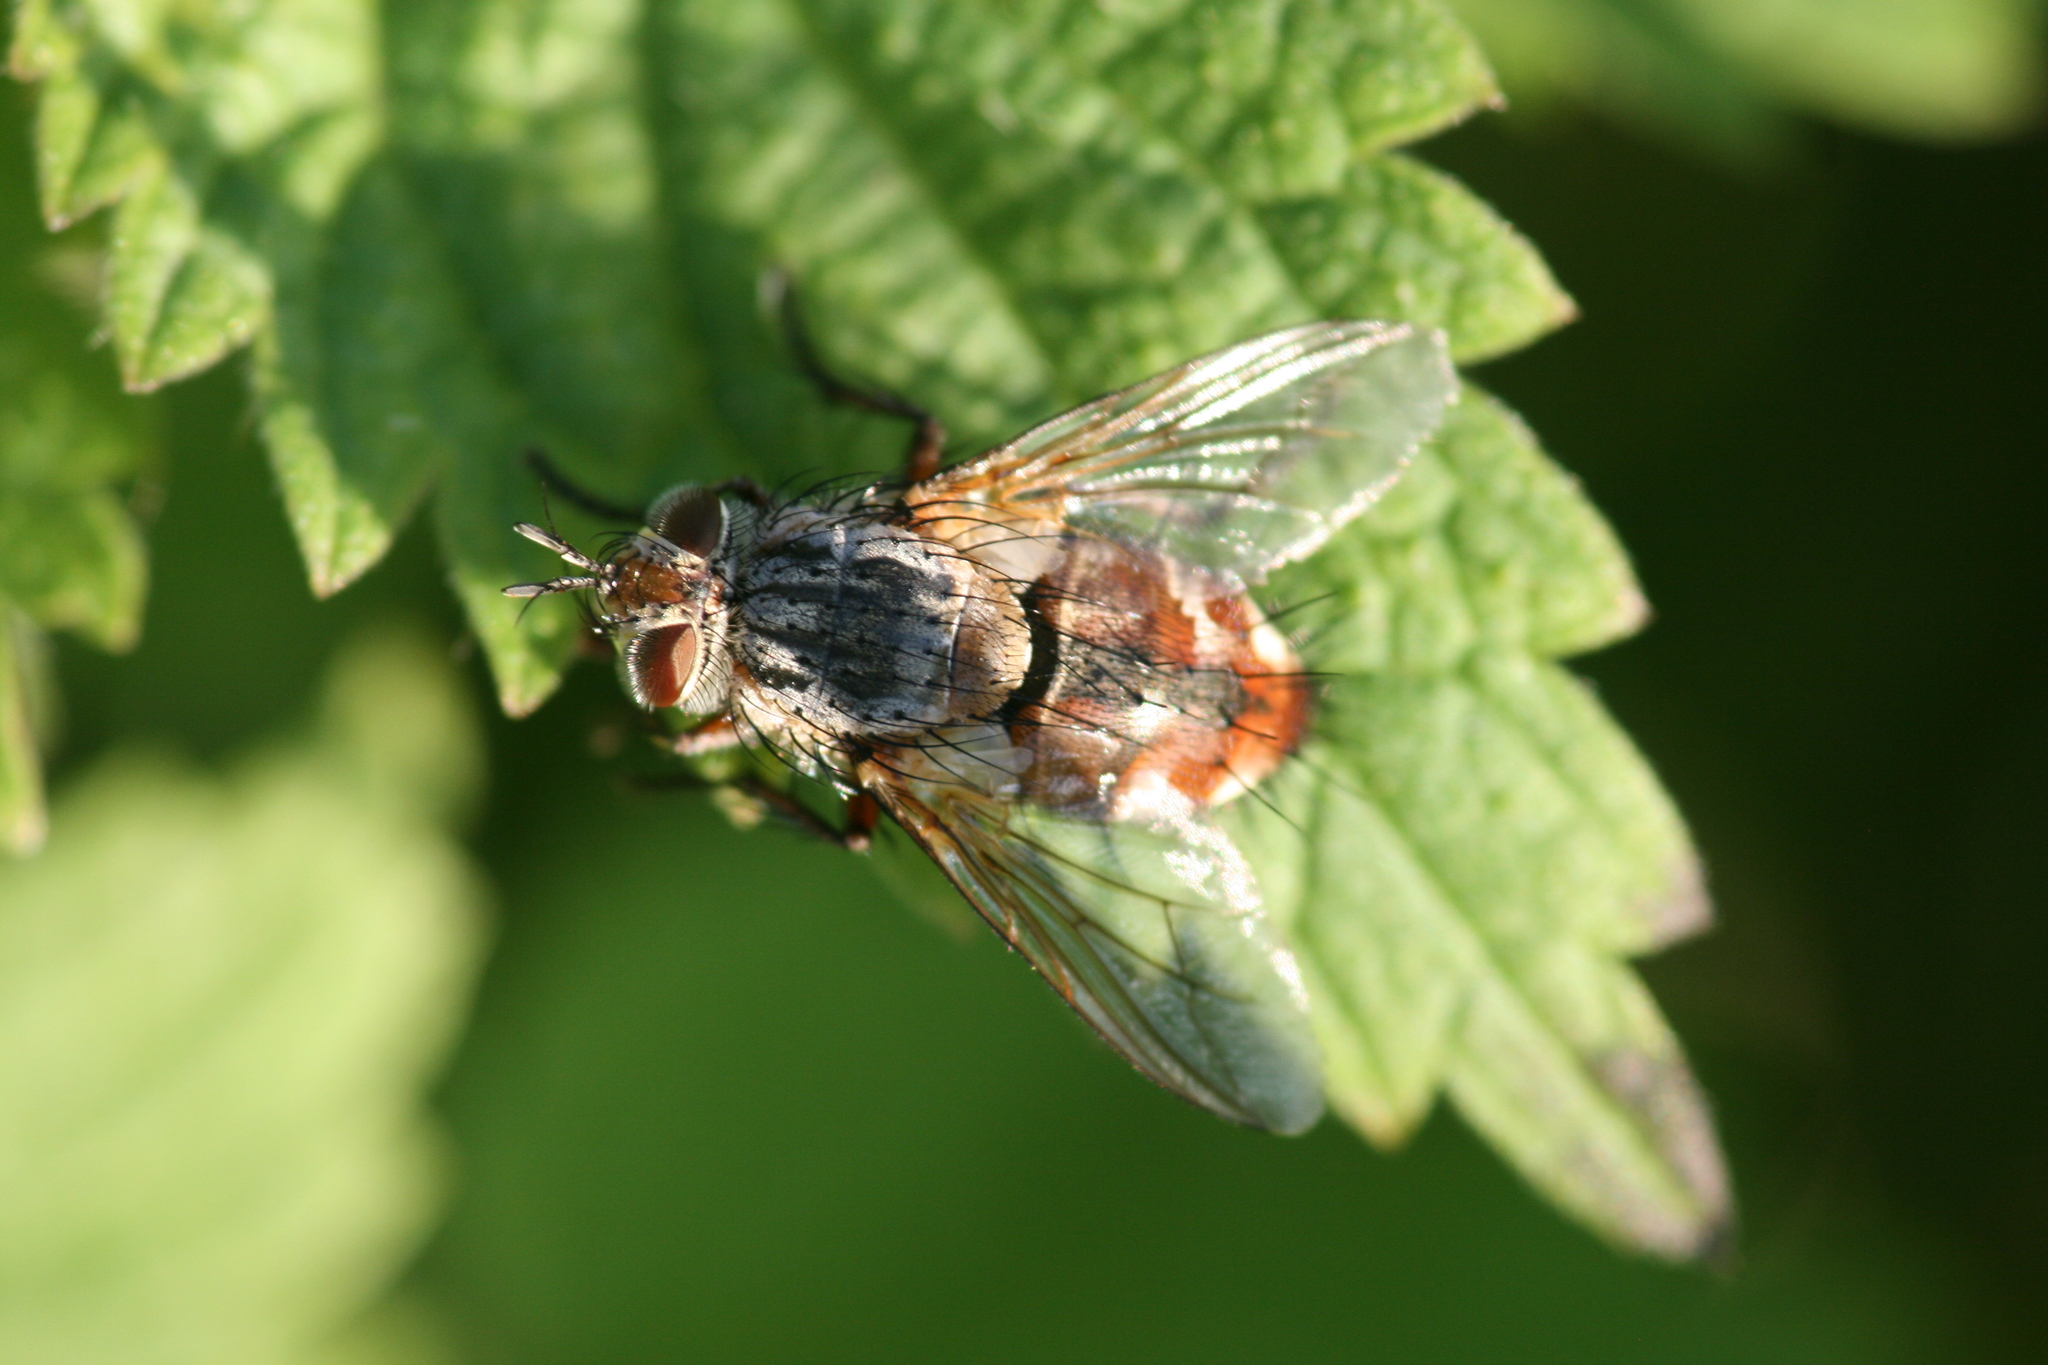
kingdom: Animalia
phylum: Arthropoda
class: Insecta
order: Diptera
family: Tachinidae
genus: Linnaemya
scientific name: Linnaemya vulpina
